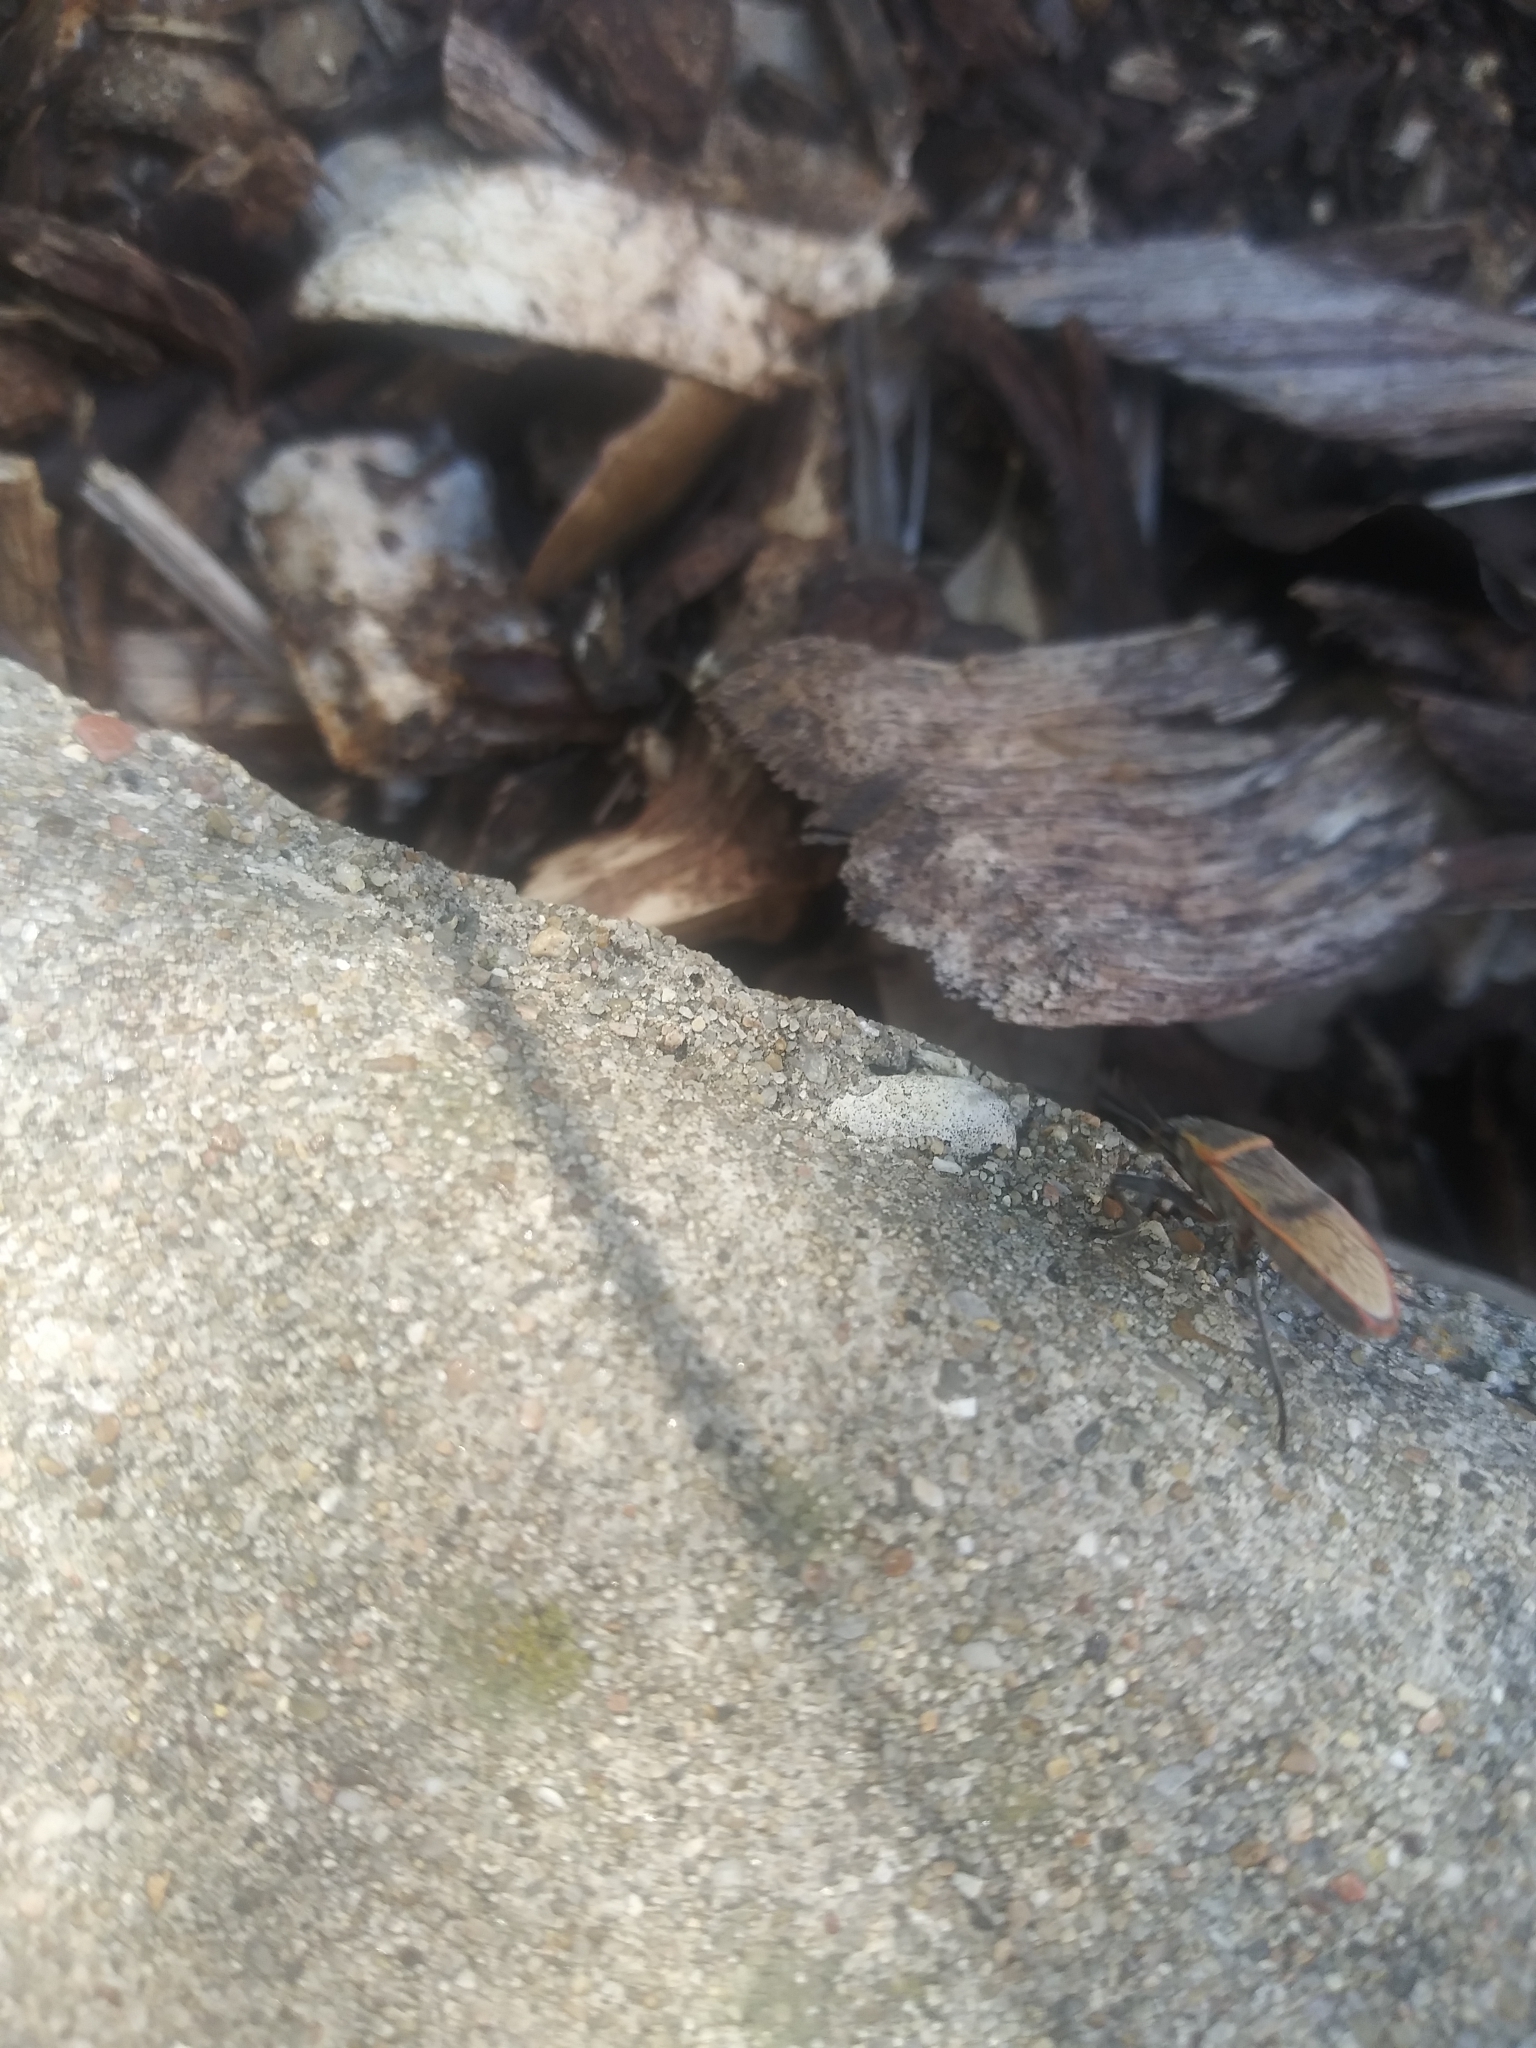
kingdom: Animalia
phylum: Arthropoda
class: Insecta
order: Hemiptera
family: Largidae
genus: Largus
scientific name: Largus maculatus
